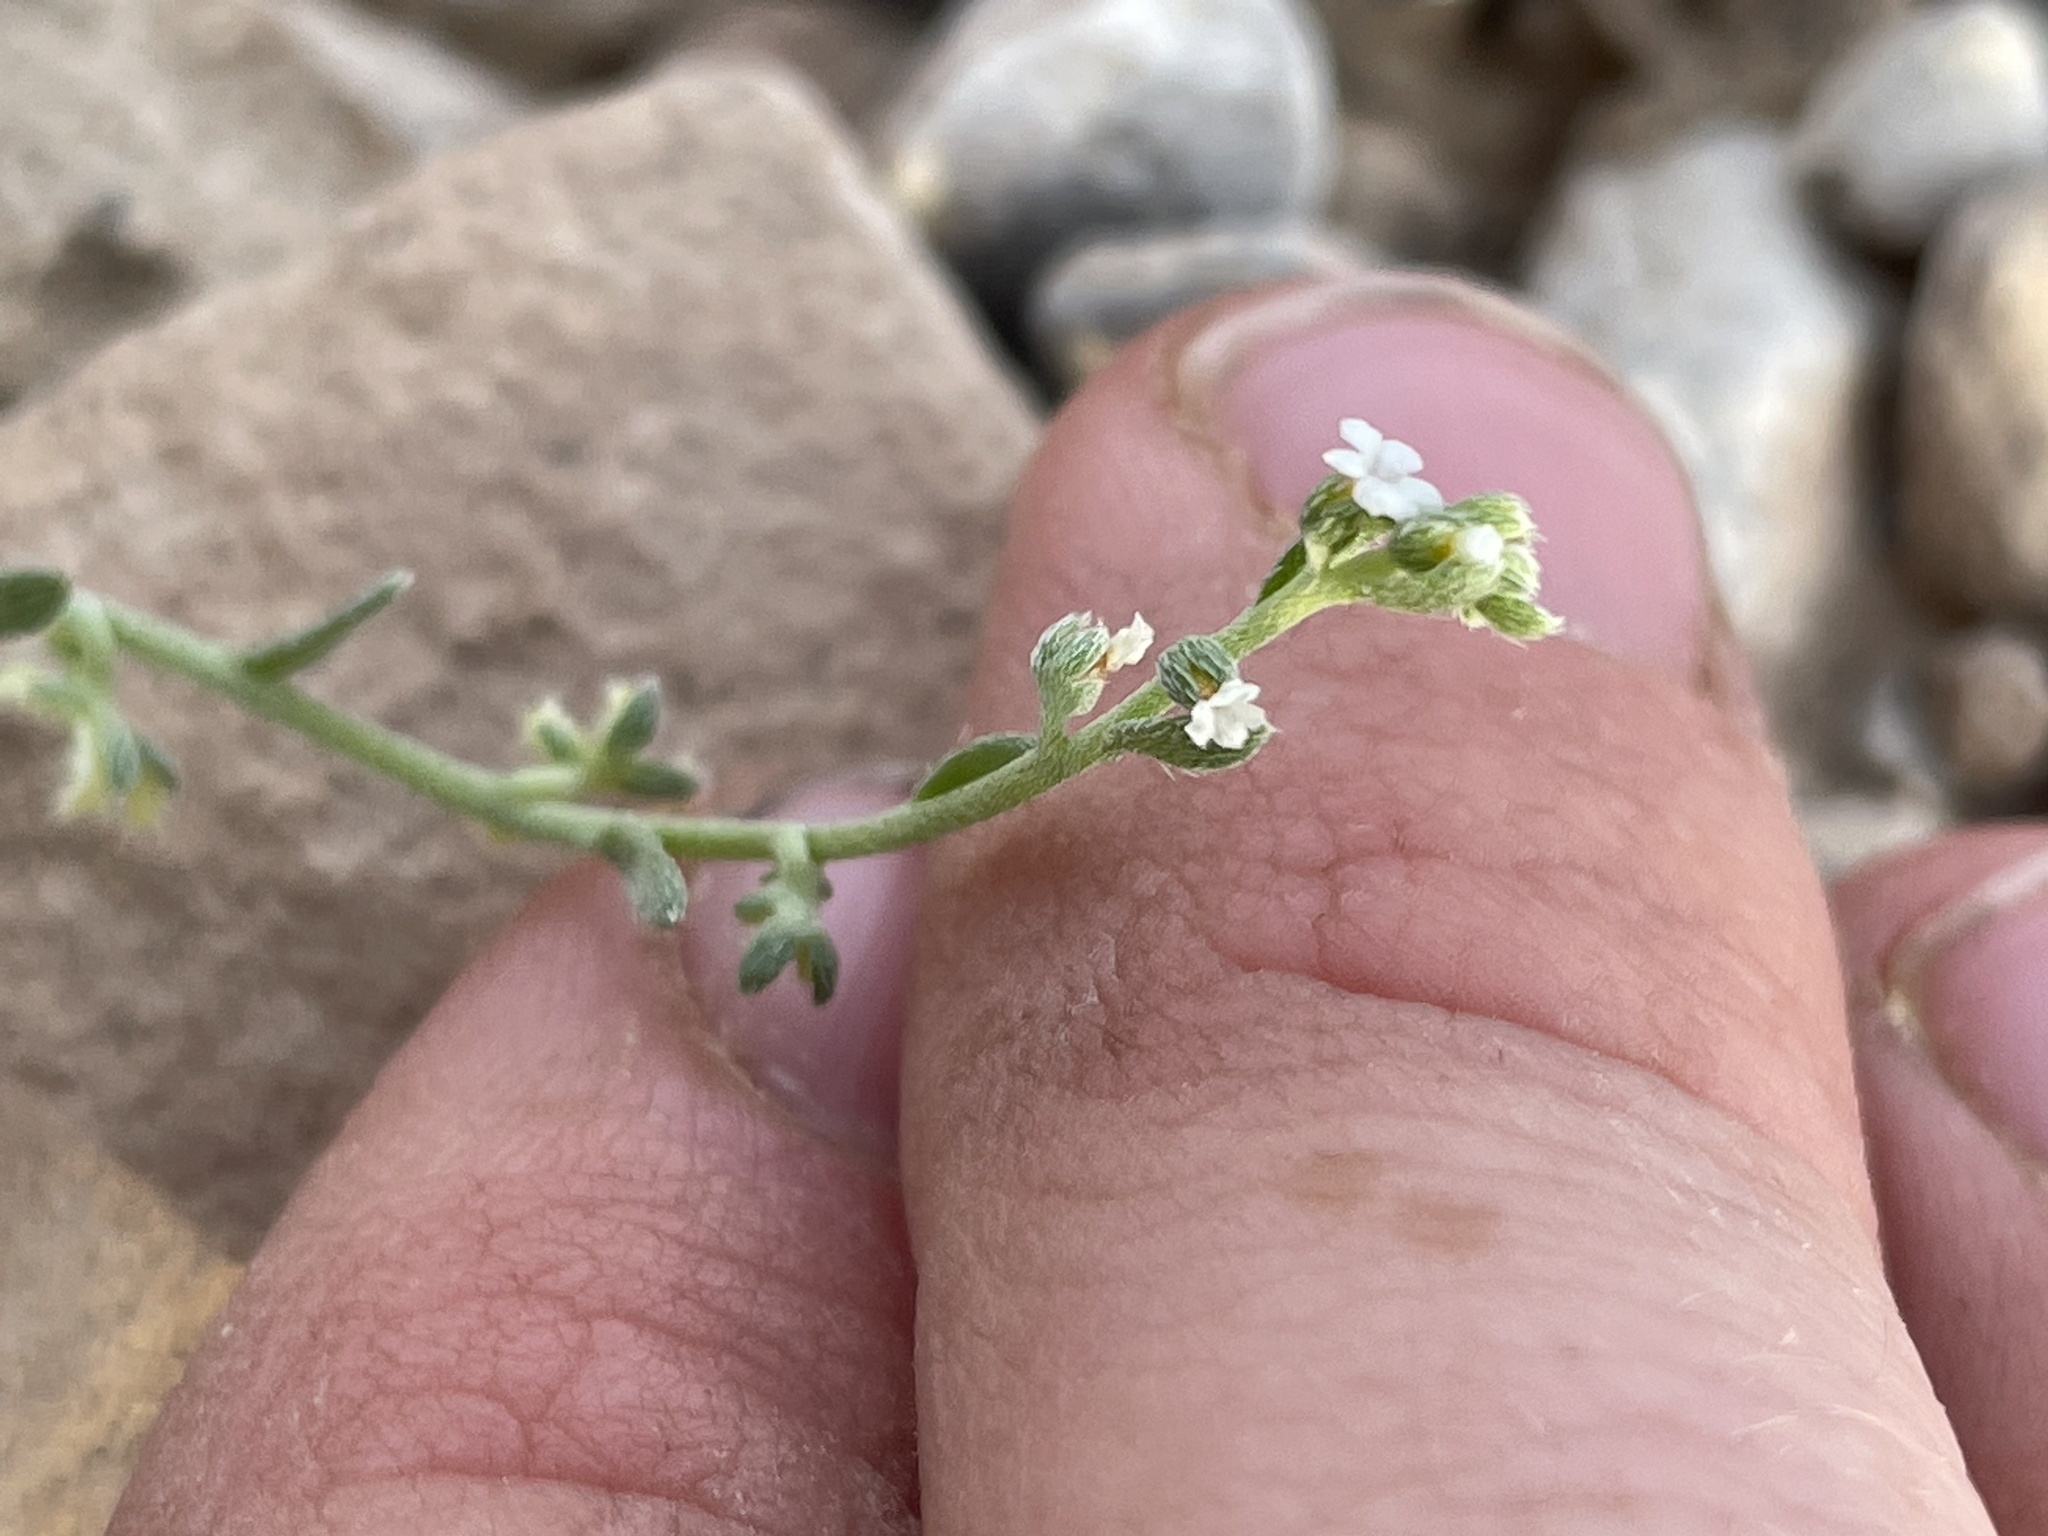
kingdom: Plantae
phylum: Tracheophyta
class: Magnoliopsida
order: Boraginales
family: Boraginaceae
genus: Pectocarya
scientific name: Pectocarya heterocarpa
